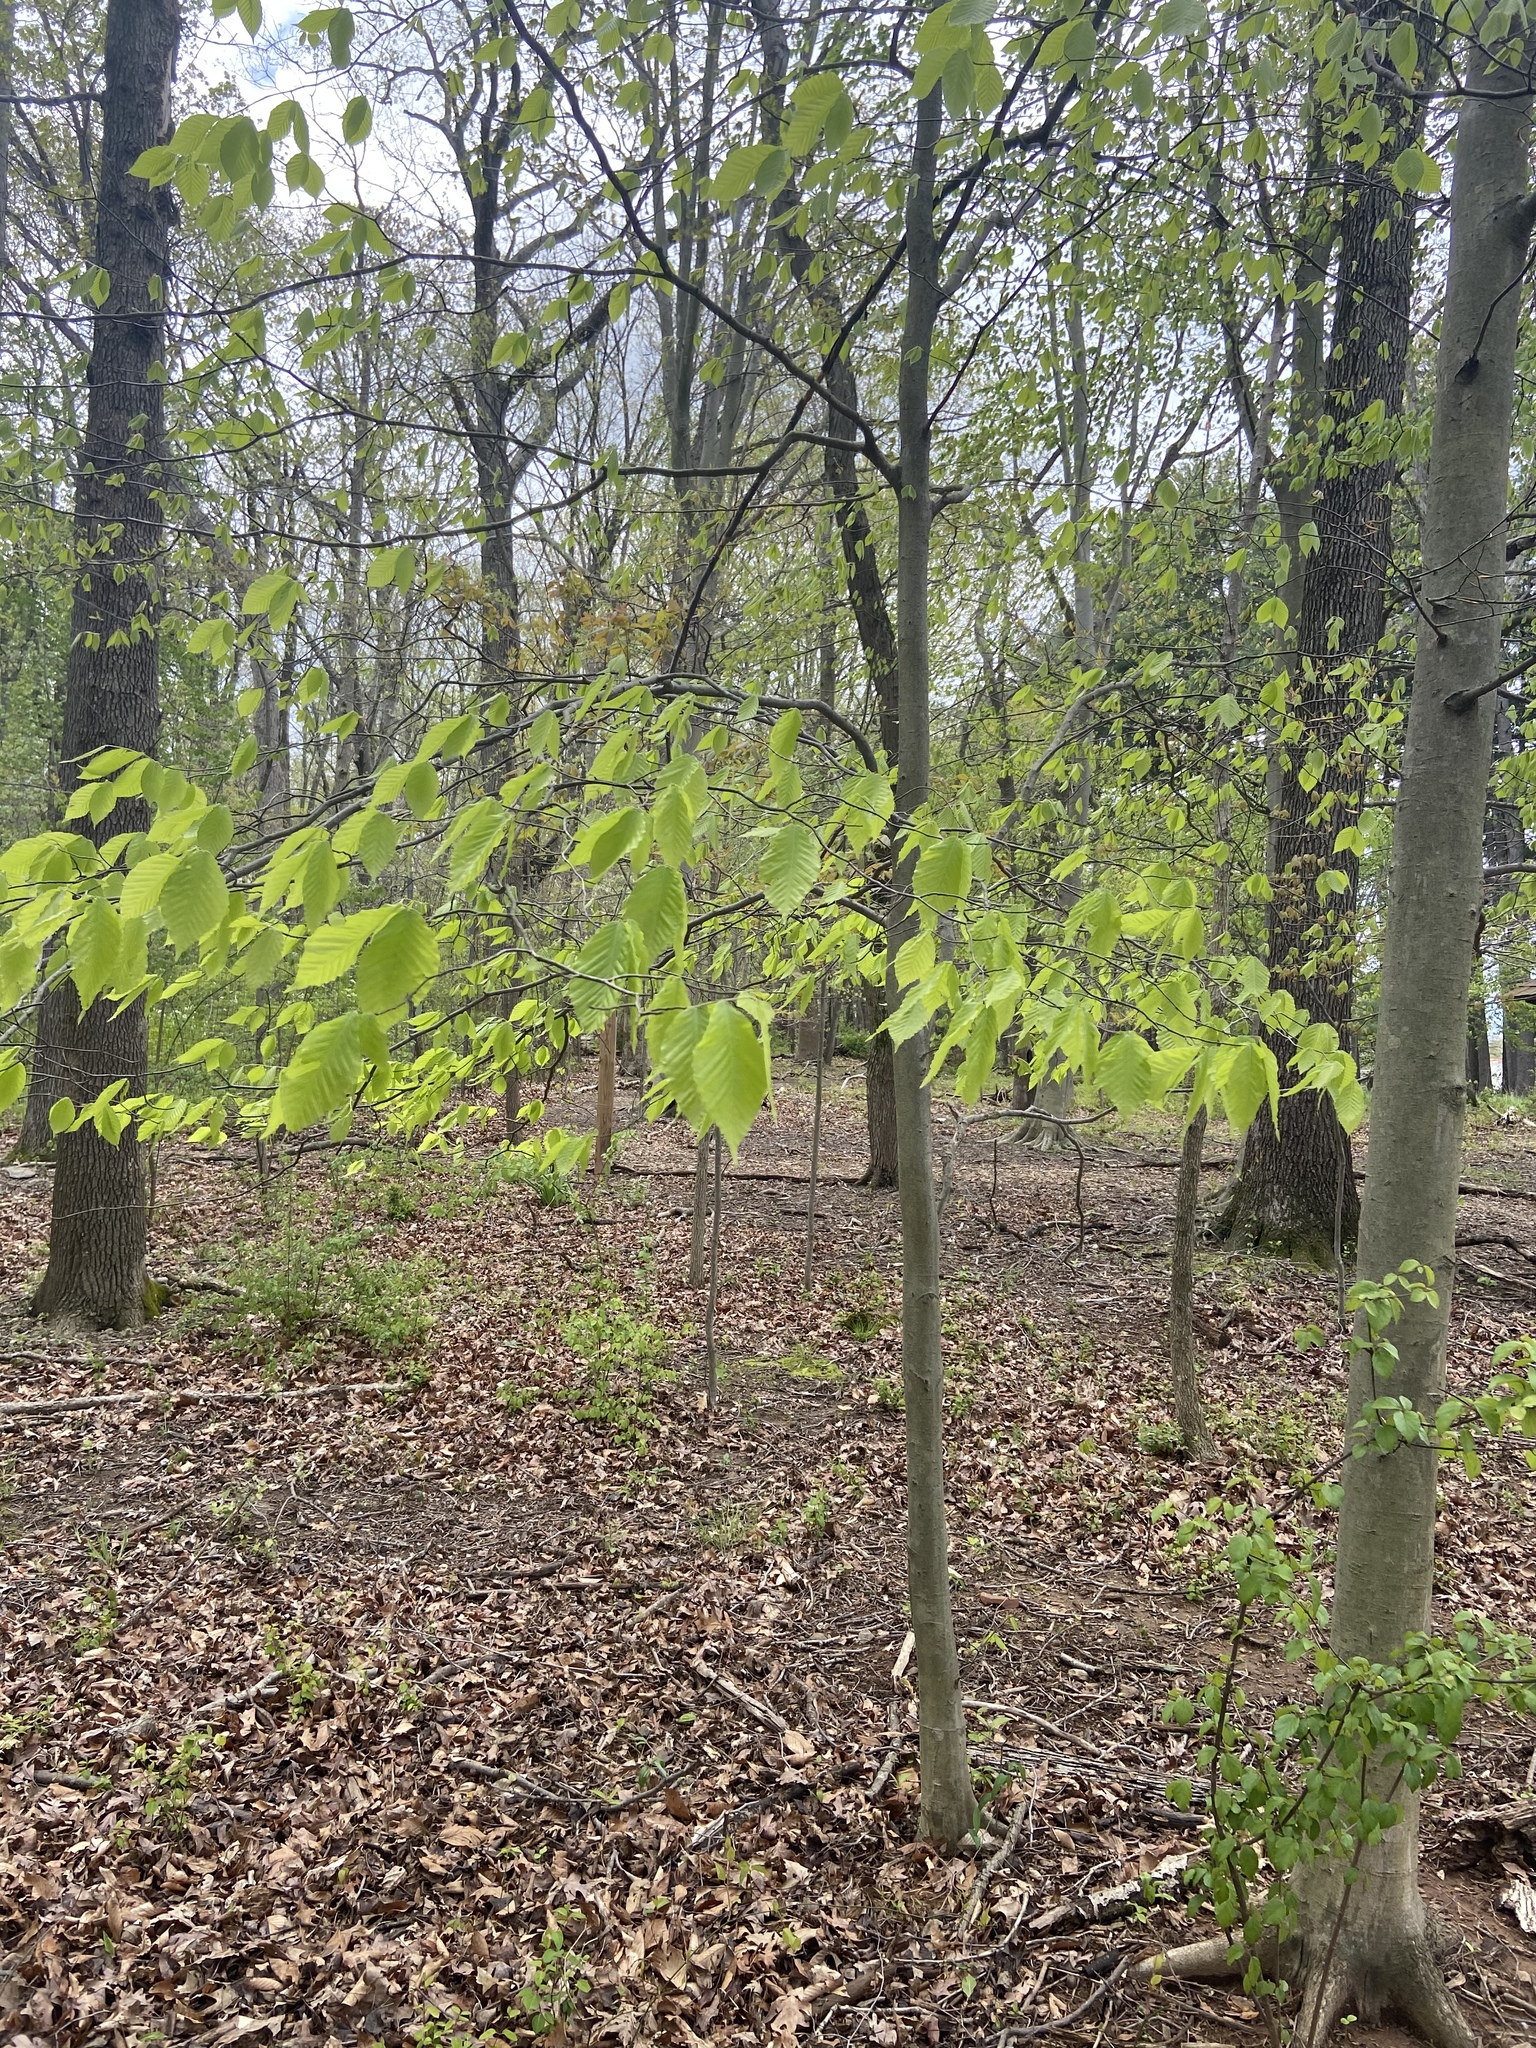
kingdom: Plantae
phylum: Tracheophyta
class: Magnoliopsida
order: Fagales
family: Fagaceae
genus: Fagus
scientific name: Fagus grandifolia
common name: American beech
